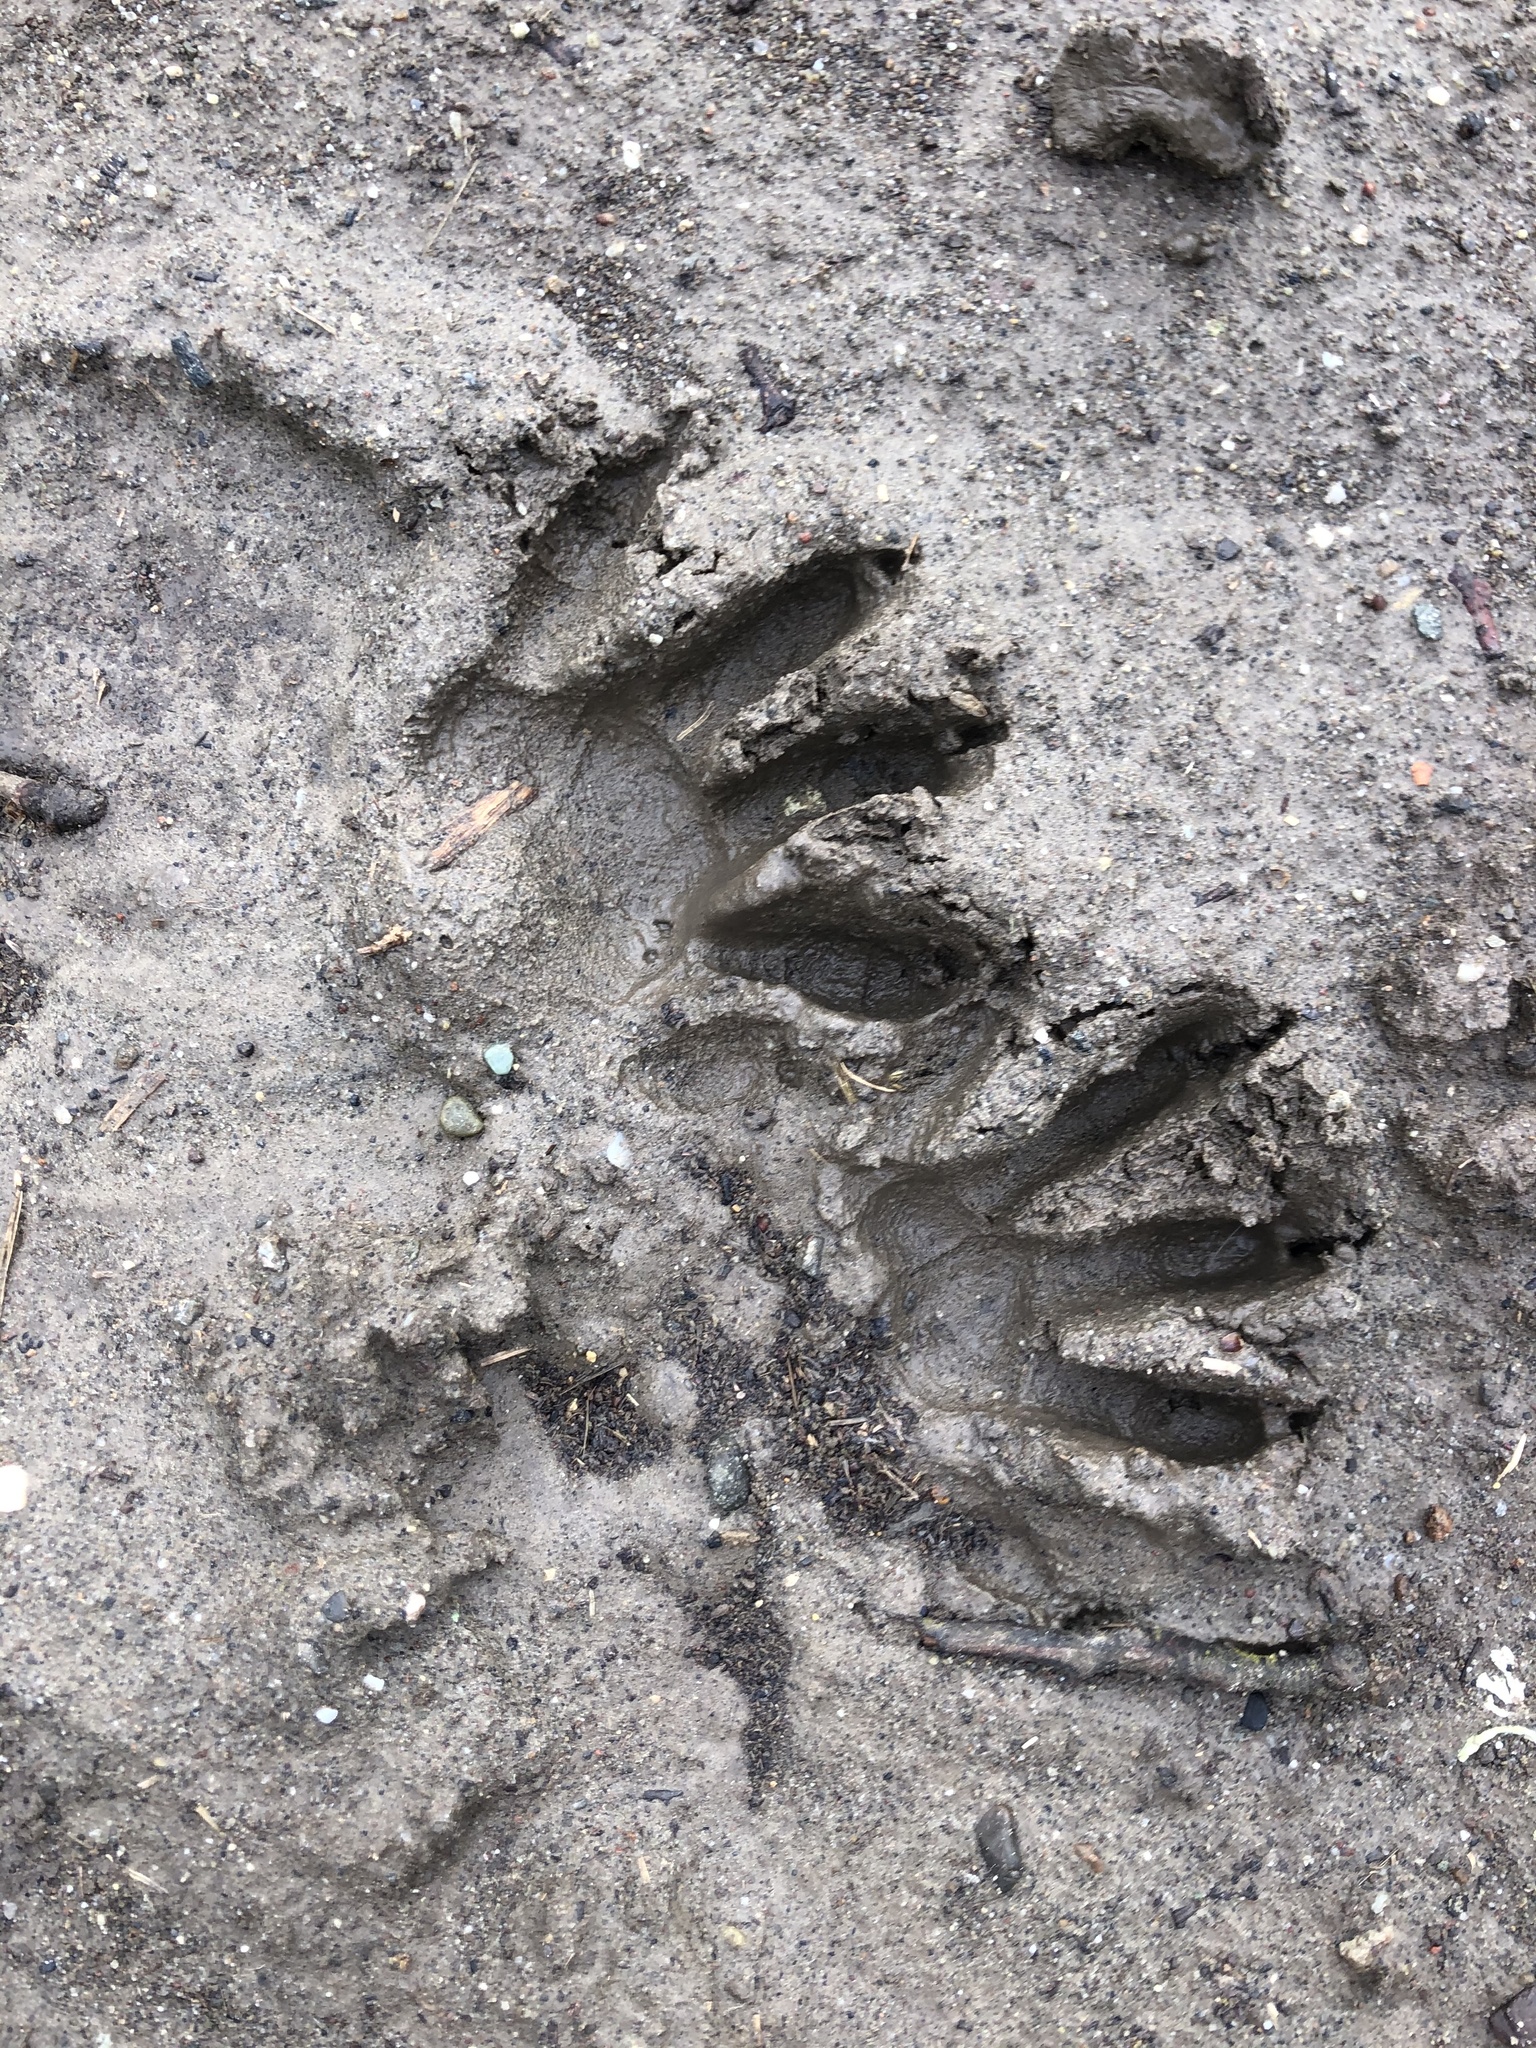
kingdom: Animalia
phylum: Chordata
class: Mammalia
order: Carnivora
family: Procyonidae
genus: Procyon
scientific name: Procyon lotor
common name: Raccoon
